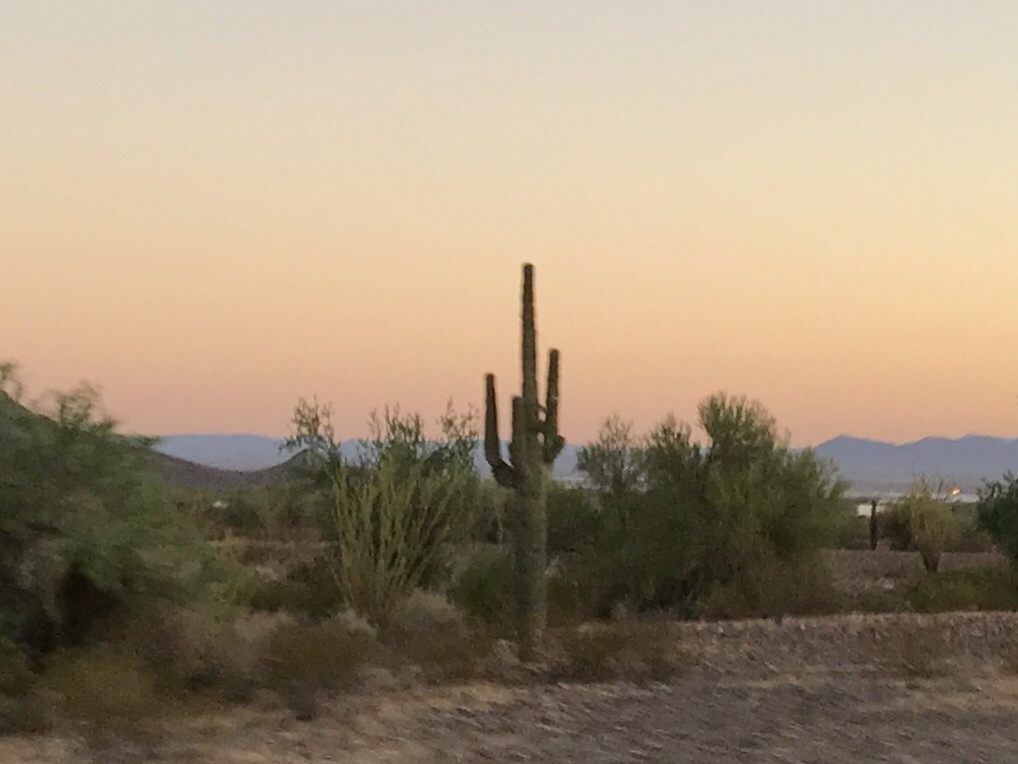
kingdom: Plantae
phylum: Tracheophyta
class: Magnoliopsida
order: Caryophyllales
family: Cactaceae
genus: Carnegiea
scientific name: Carnegiea gigantea
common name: Saguaro
